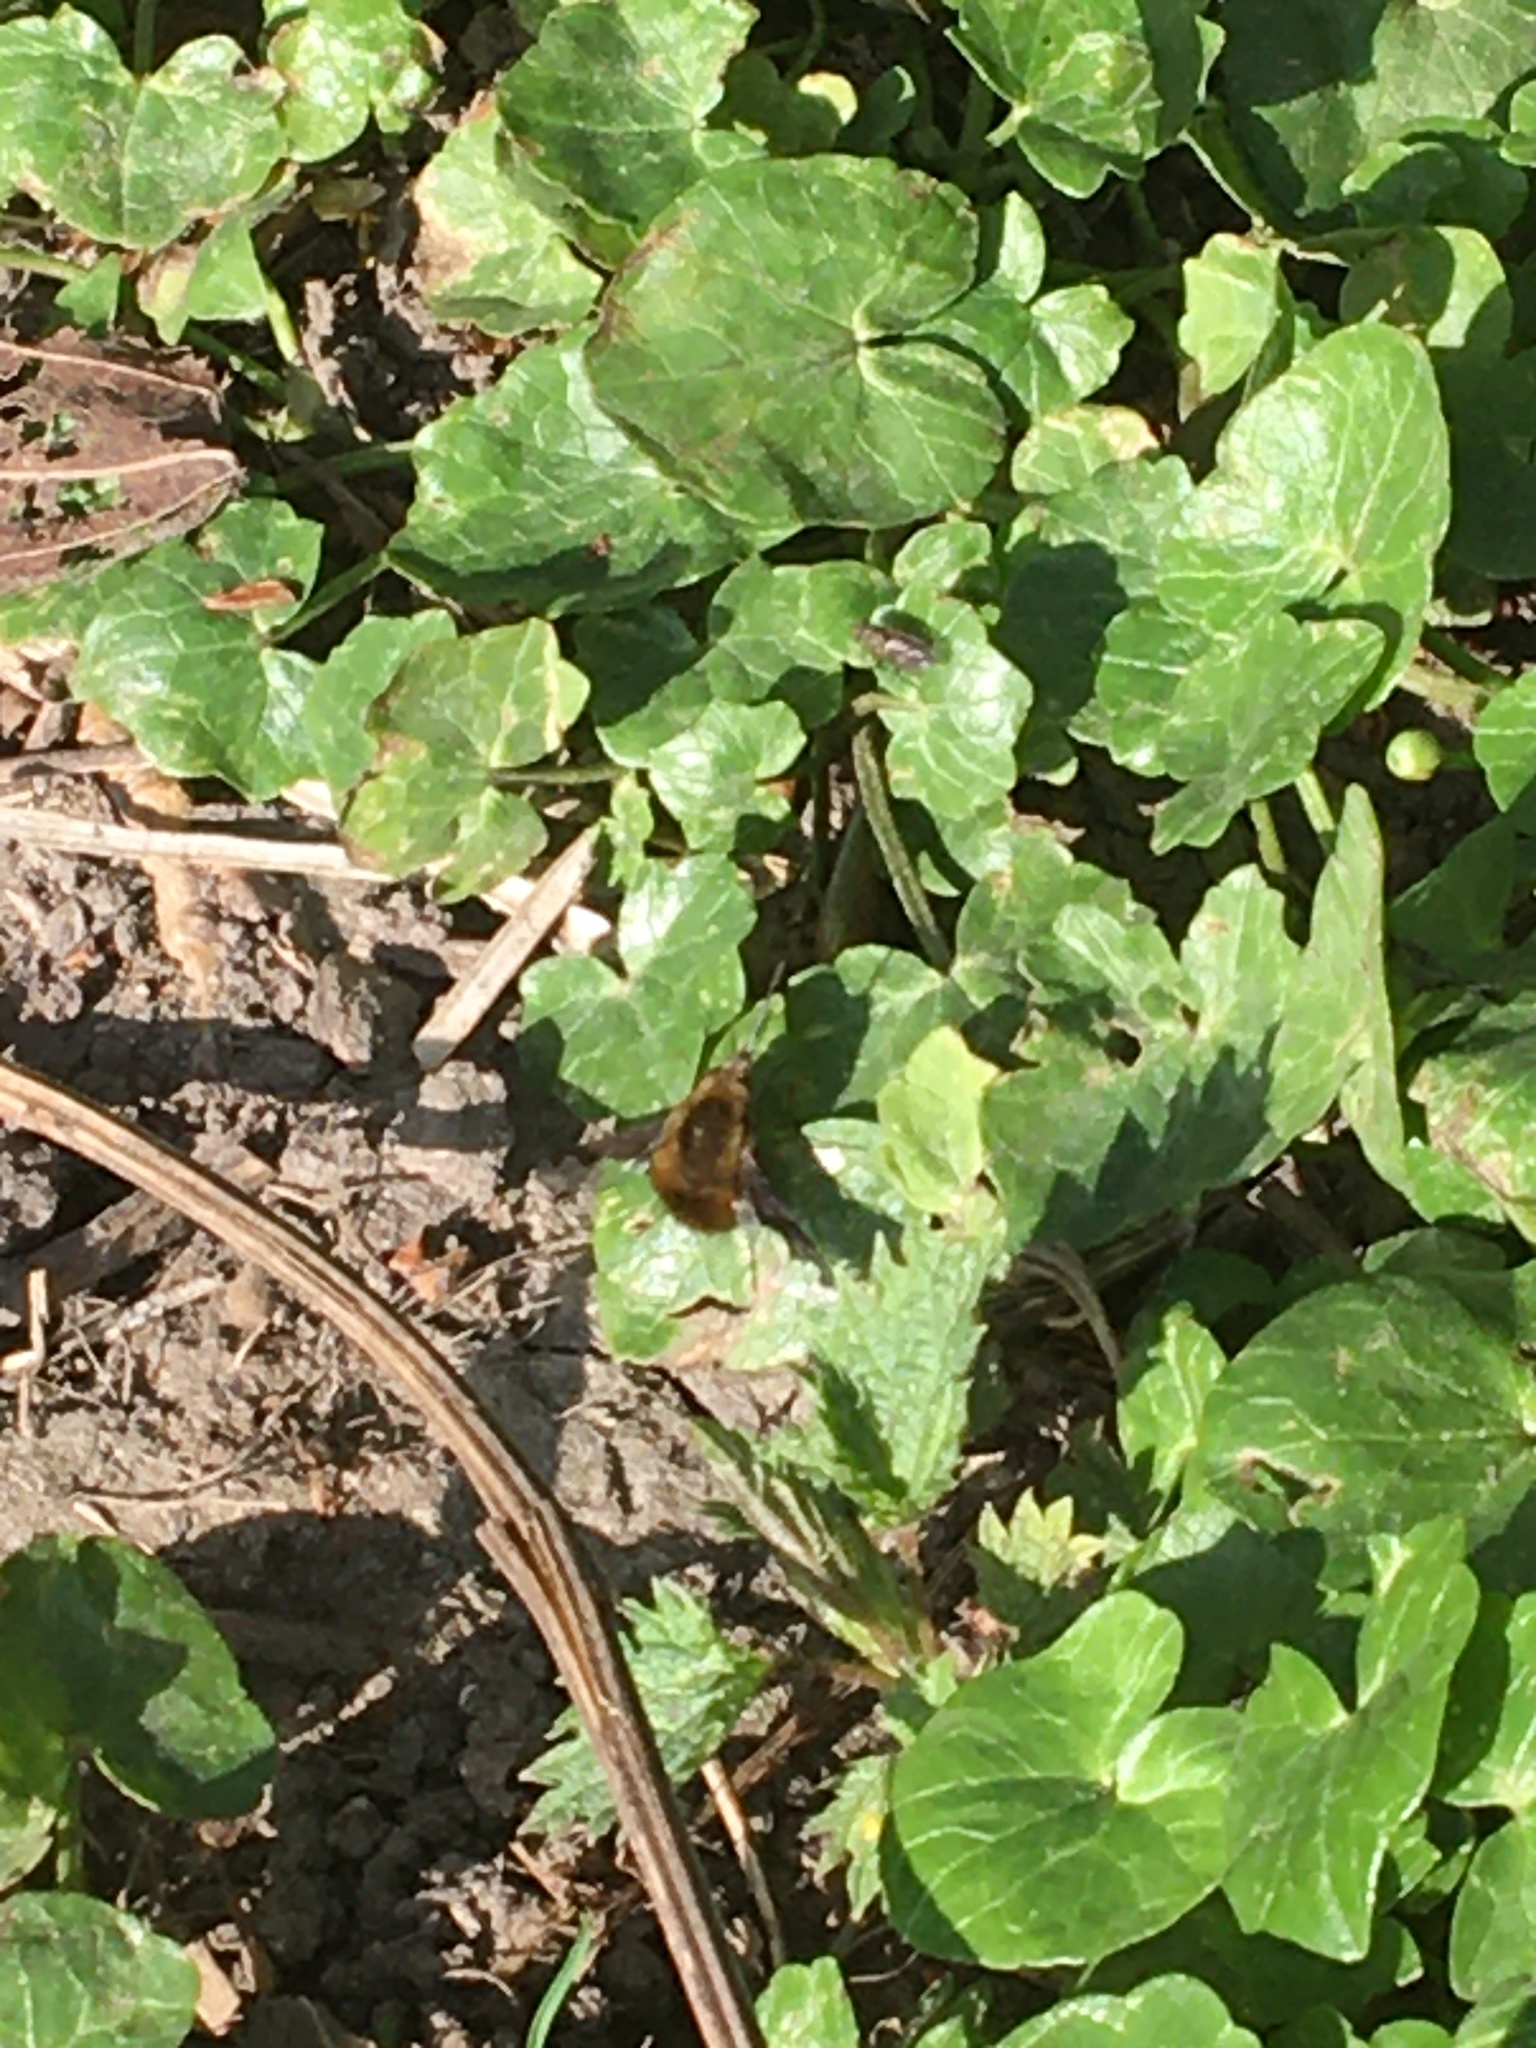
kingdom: Animalia
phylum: Arthropoda
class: Insecta
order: Diptera
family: Bombyliidae
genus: Bombylius
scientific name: Bombylius major
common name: Bee fly
